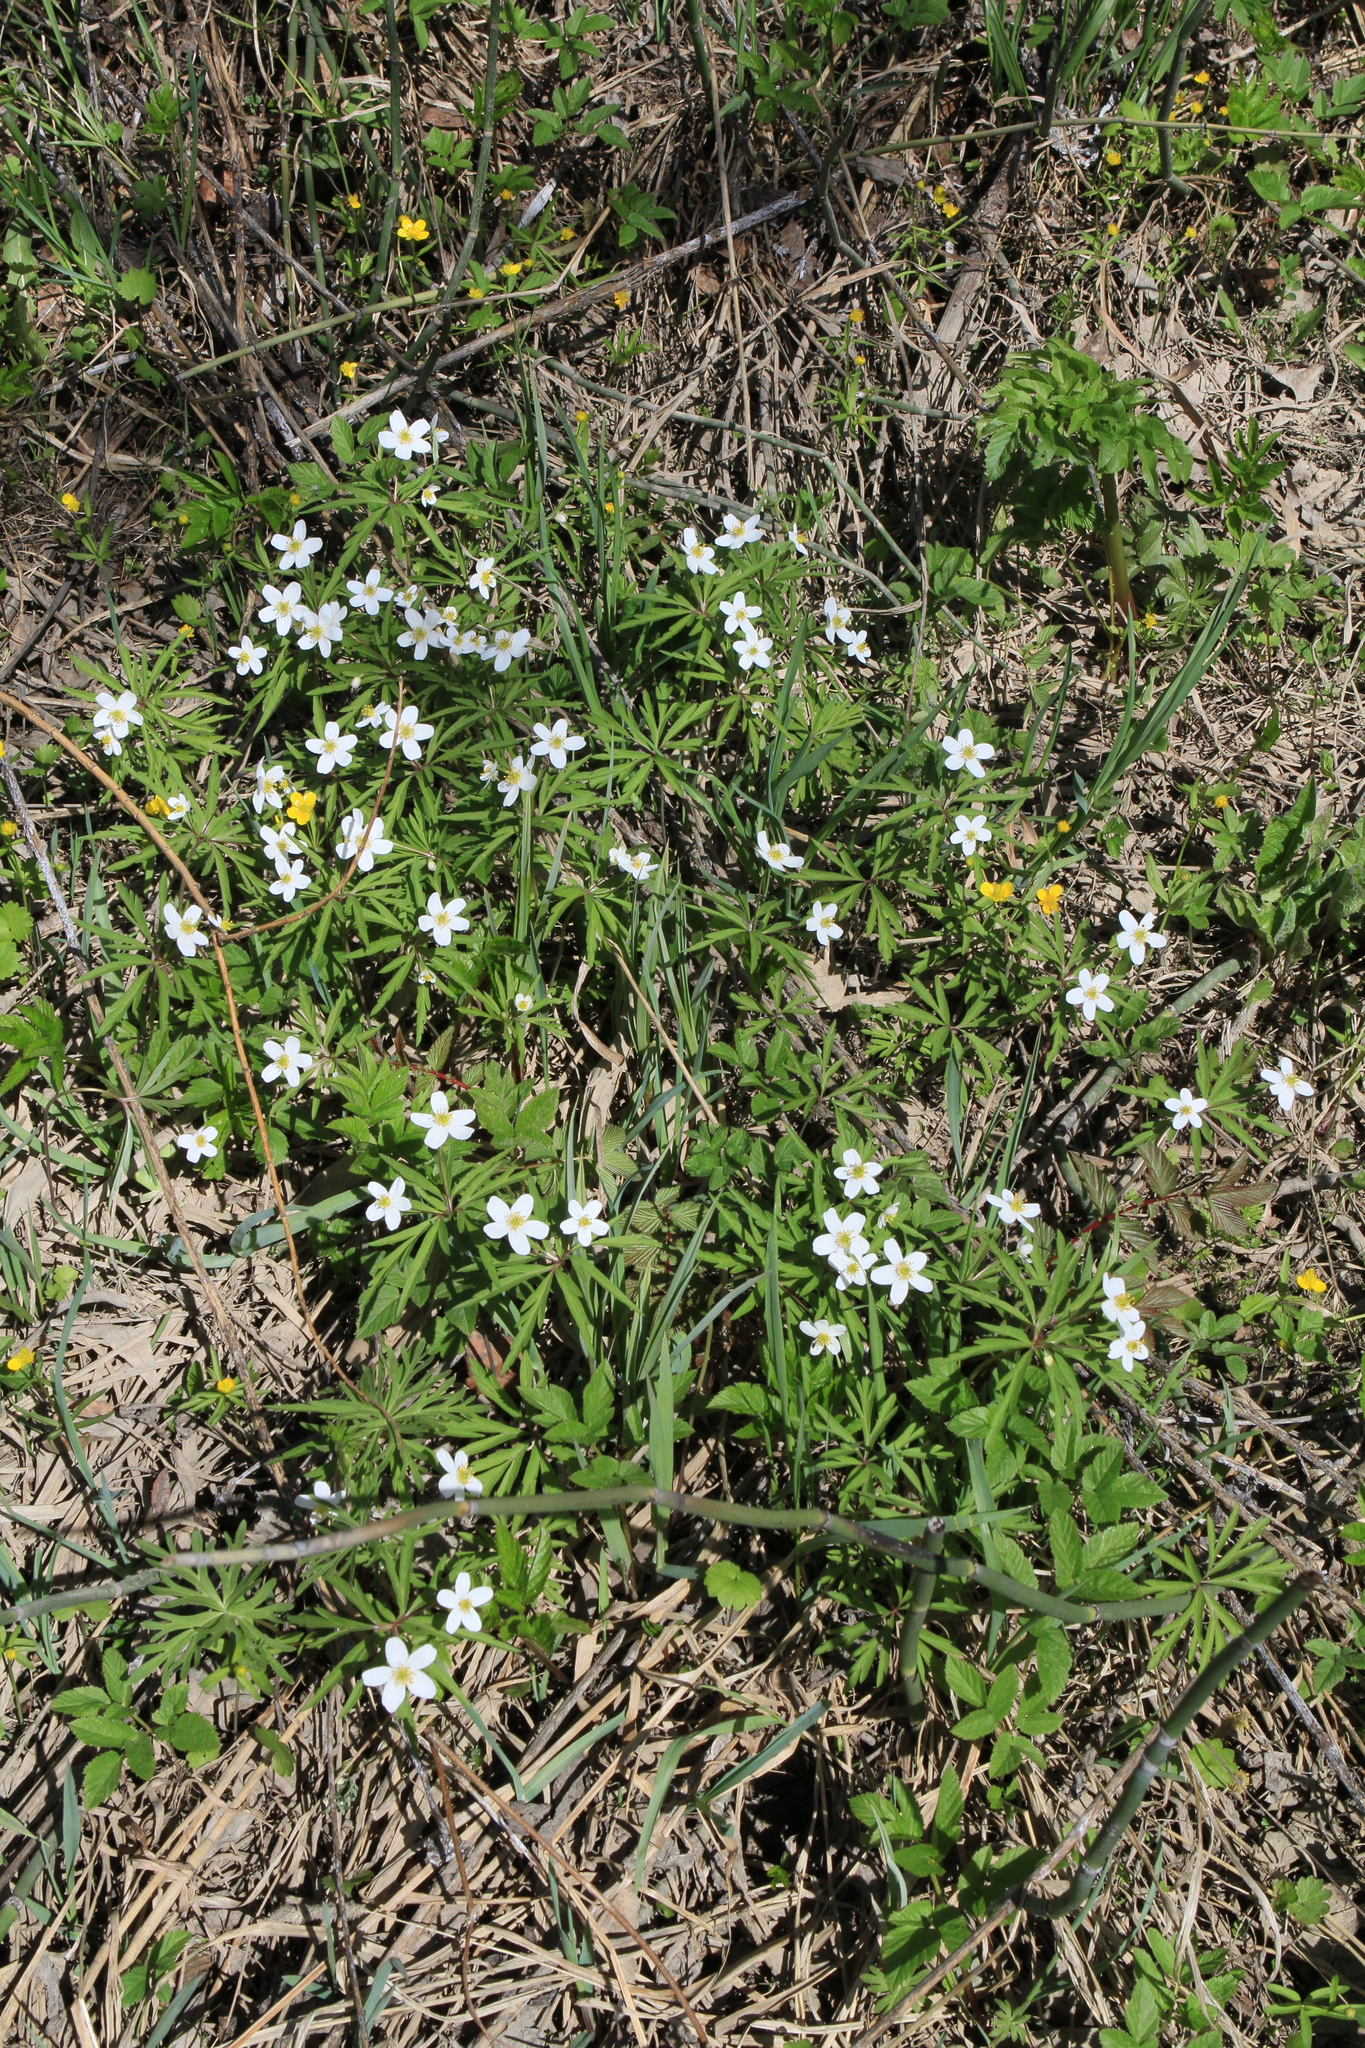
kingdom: Plantae
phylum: Tracheophyta
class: Magnoliopsida
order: Ranunculales
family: Ranunculaceae
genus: Anemone
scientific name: Anemone caerulea
